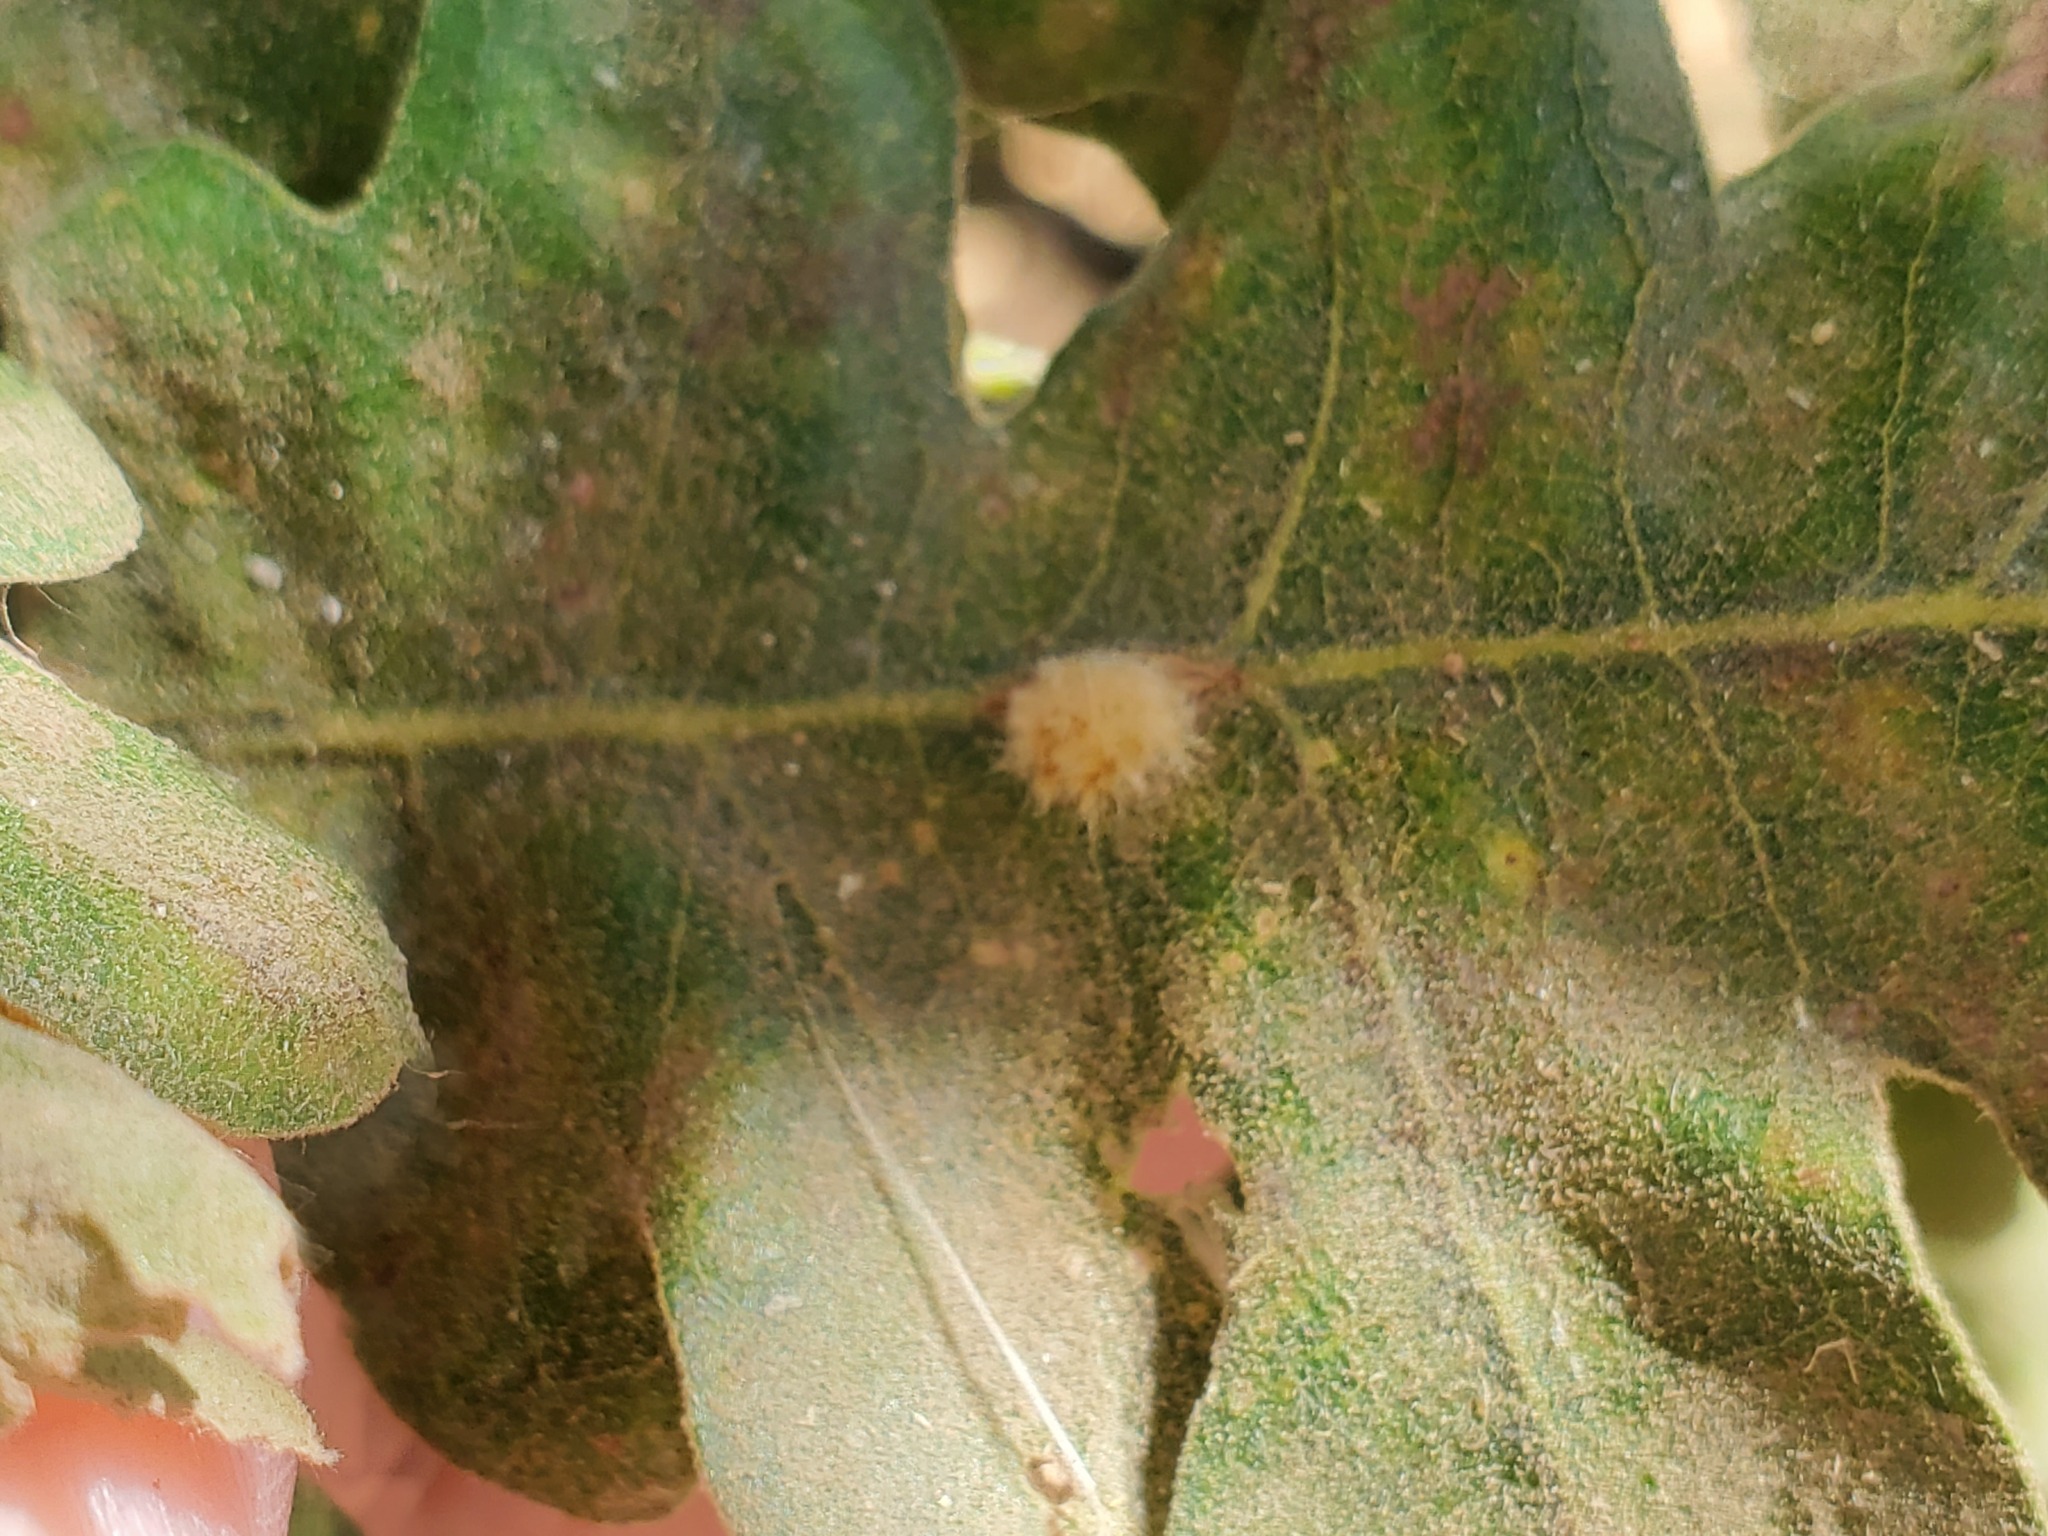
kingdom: Animalia
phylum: Arthropoda
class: Insecta
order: Hymenoptera
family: Cynipidae
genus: Andricus
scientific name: Andricus Druon fullawayi
